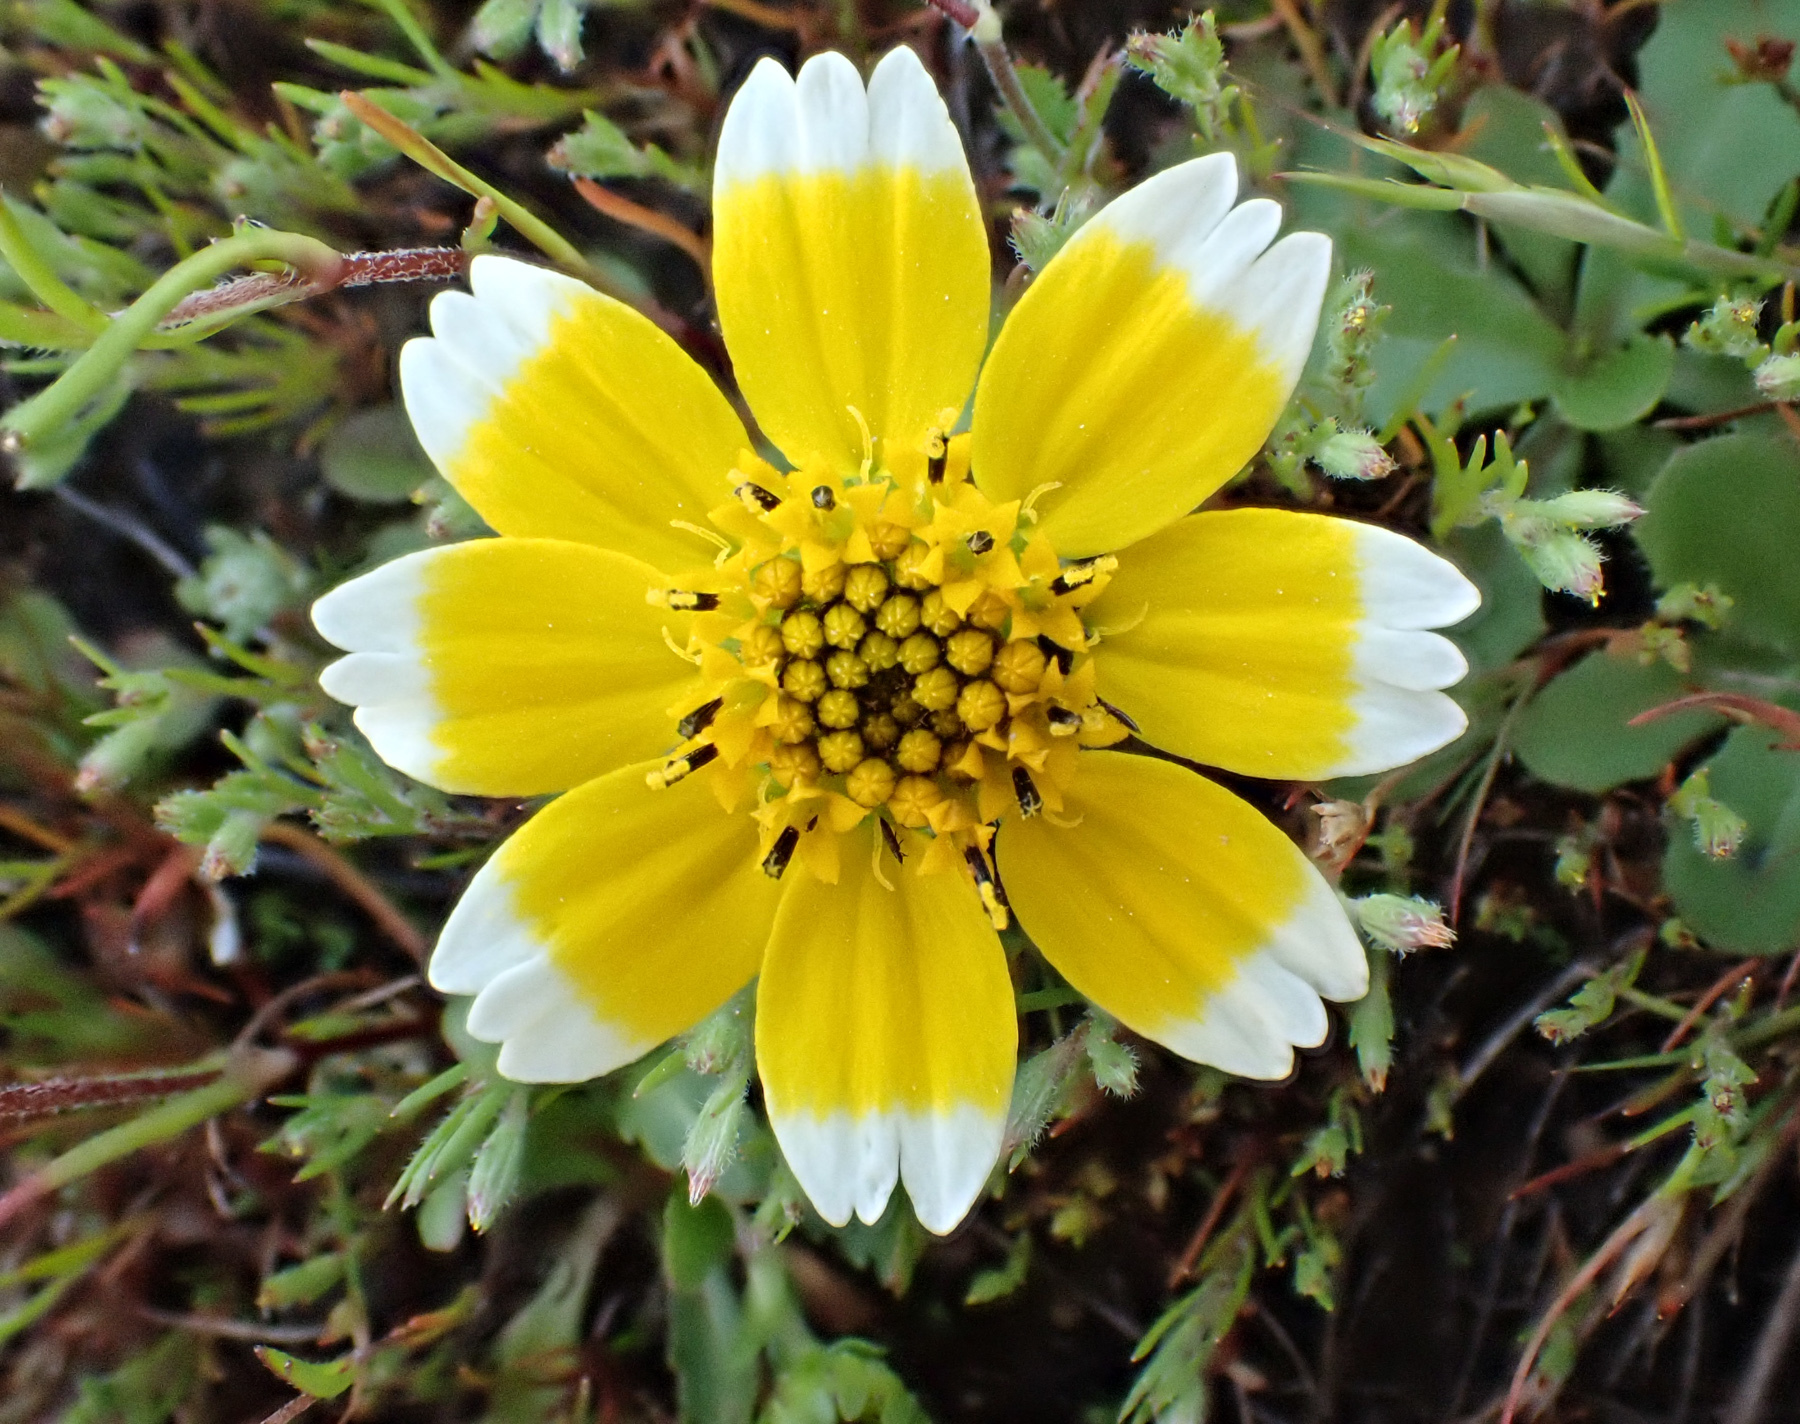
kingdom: Plantae
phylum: Tracheophyta
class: Magnoliopsida
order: Asterales
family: Asteraceae
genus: Layia
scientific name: Layia platyglossa
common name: Tidy-tips
